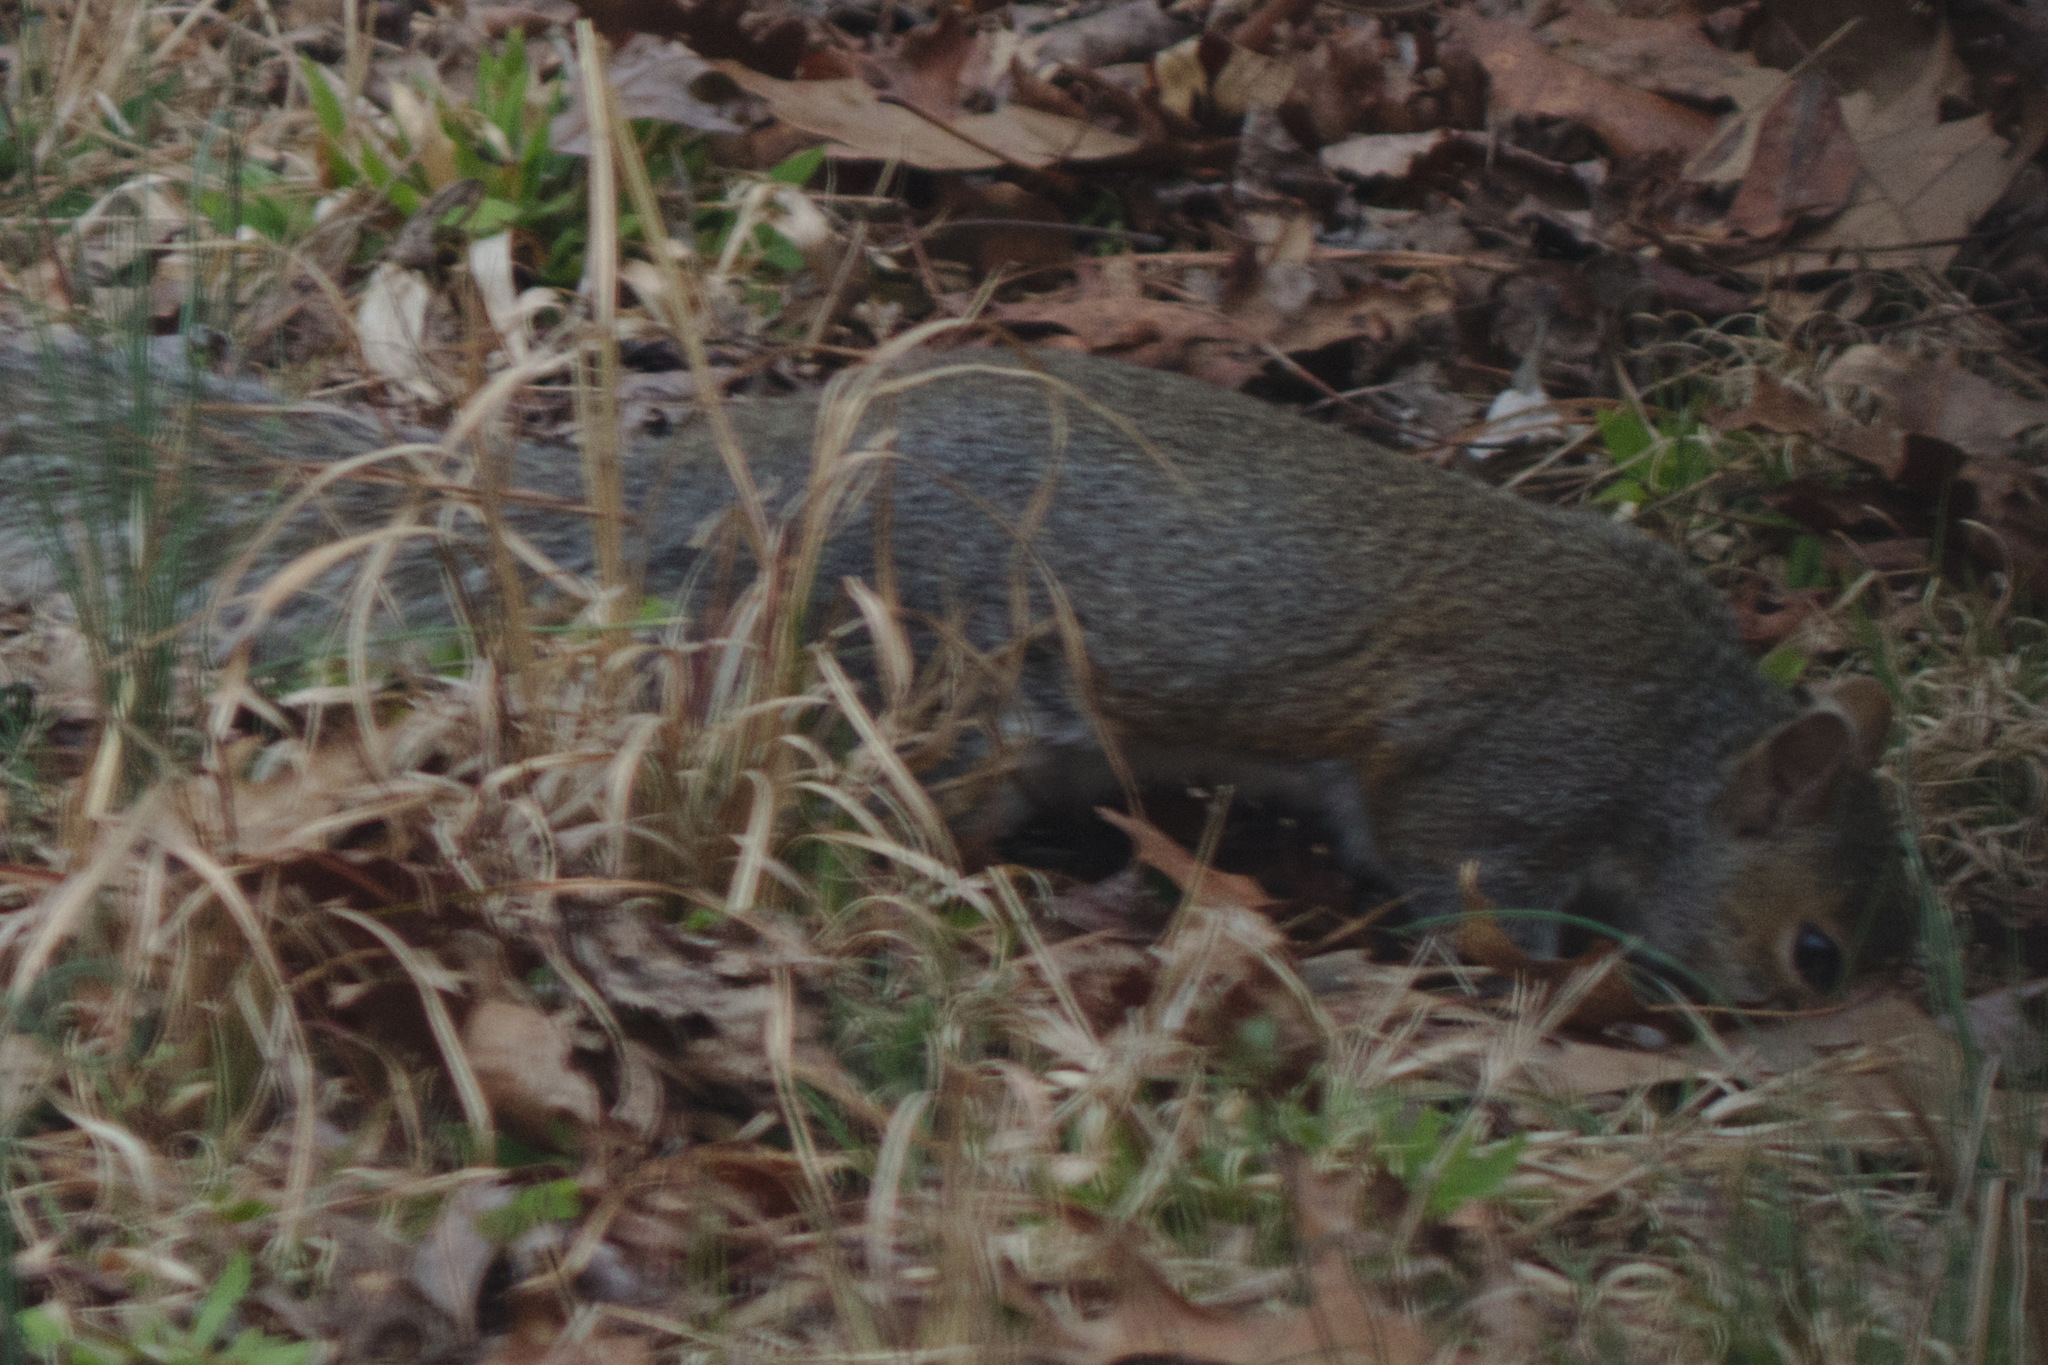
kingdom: Animalia
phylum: Chordata
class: Mammalia
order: Rodentia
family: Sciuridae
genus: Sciurus
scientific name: Sciurus carolinensis
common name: Eastern gray squirrel
